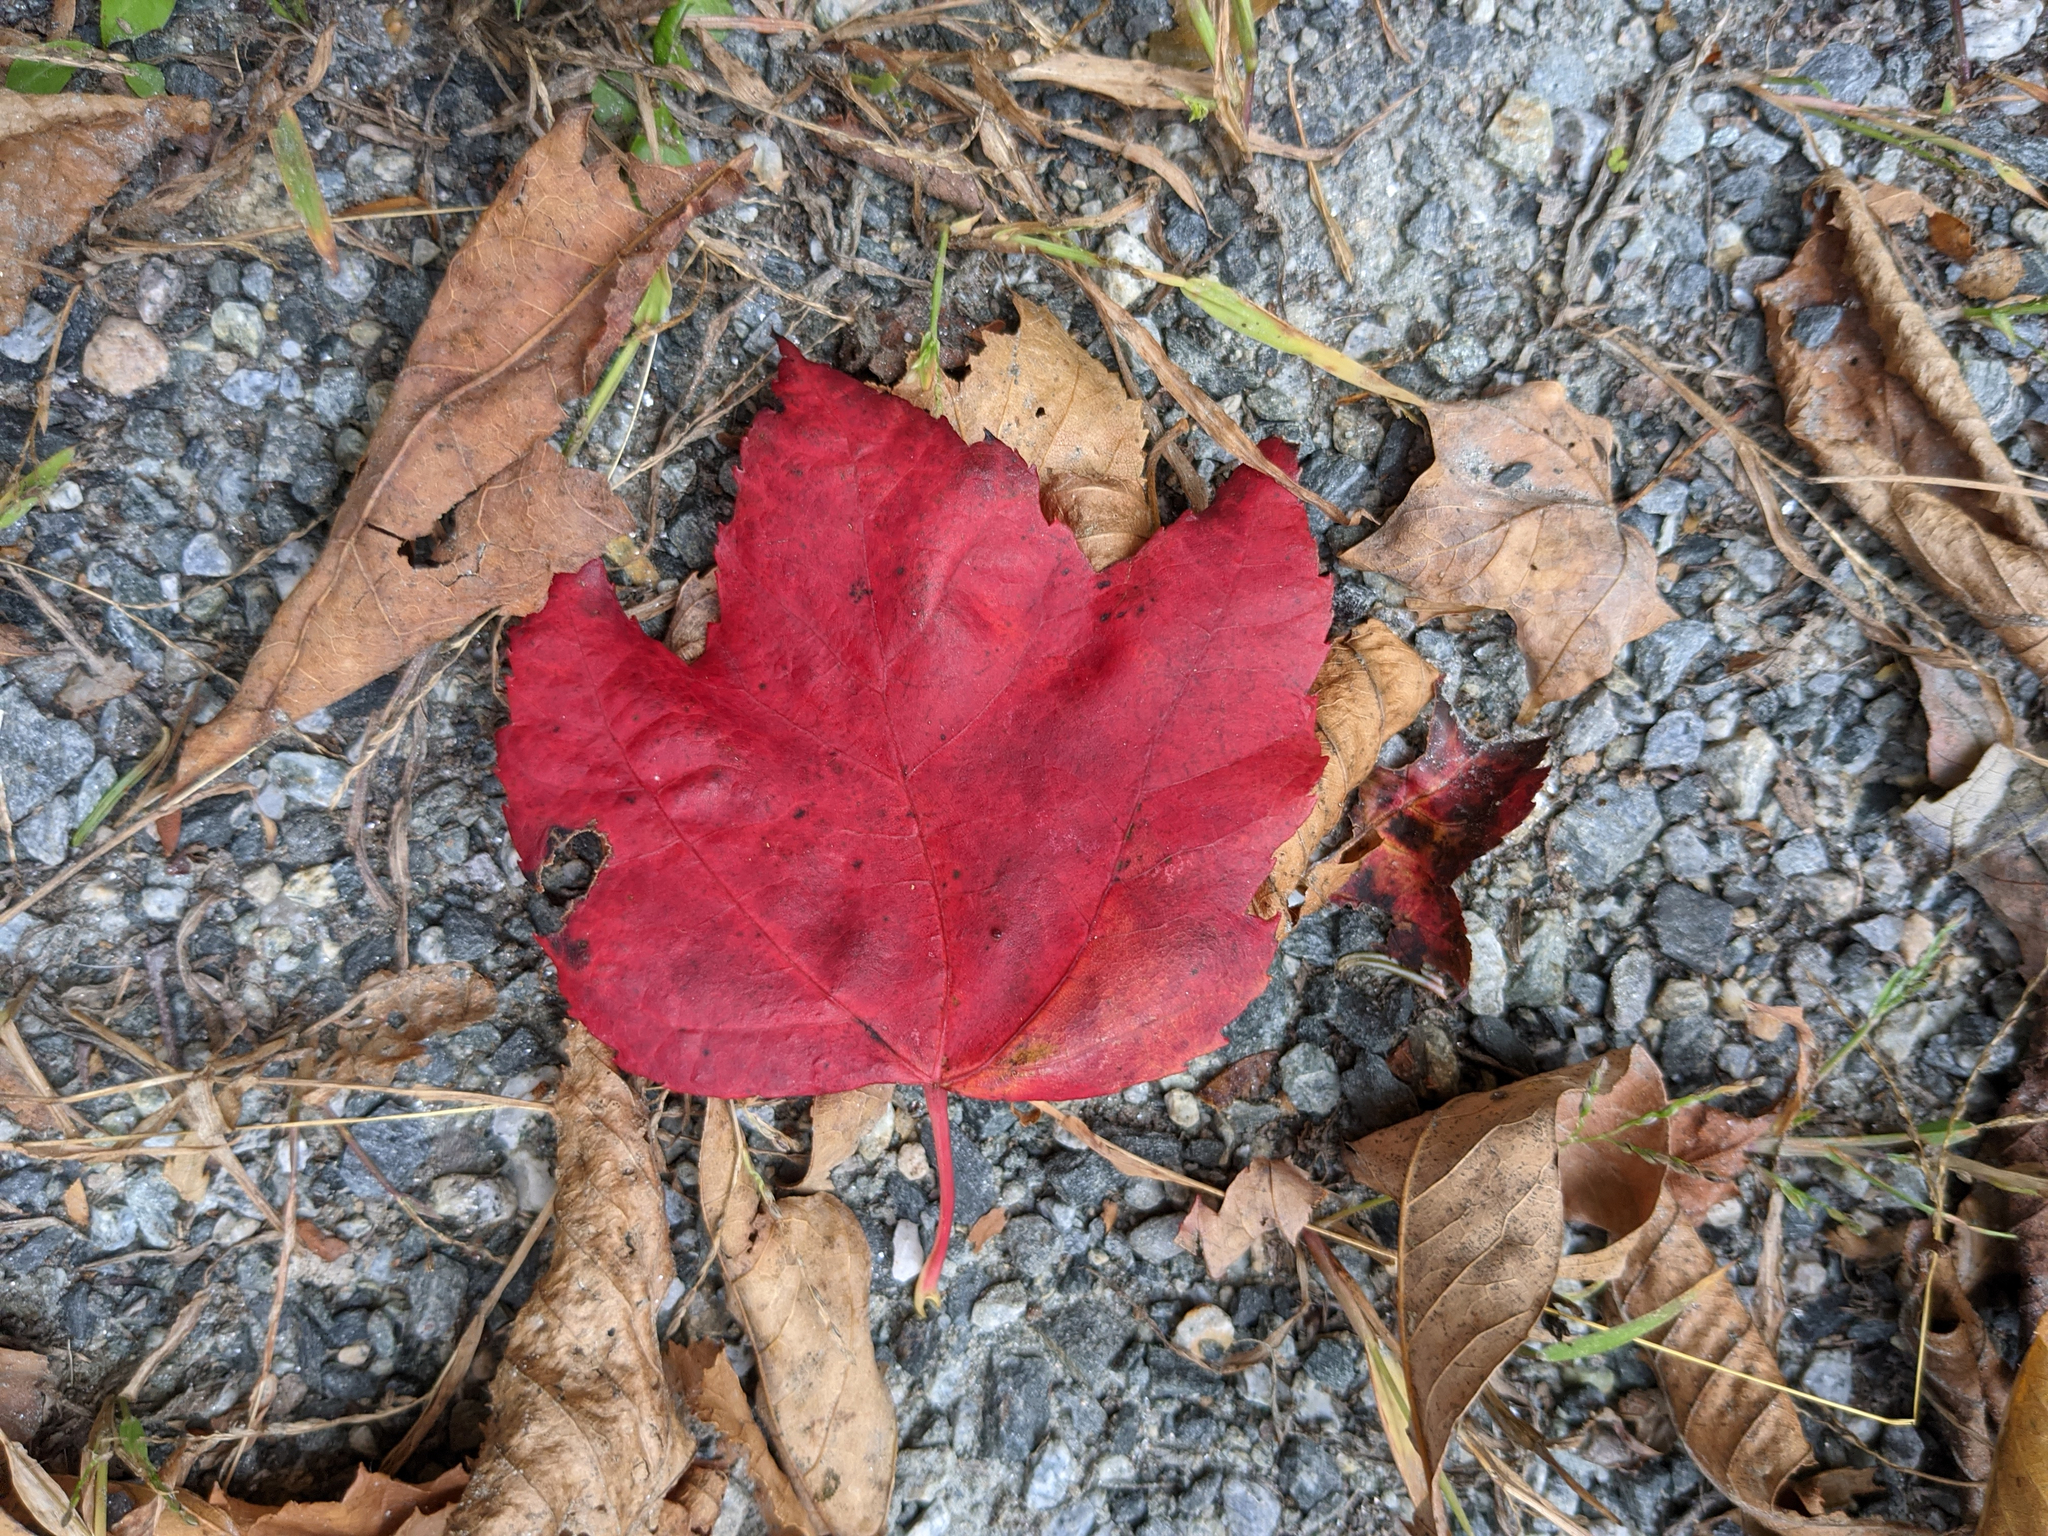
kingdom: Plantae
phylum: Tracheophyta
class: Magnoliopsida
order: Sapindales
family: Sapindaceae
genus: Acer
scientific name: Acer rubrum
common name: Red maple
